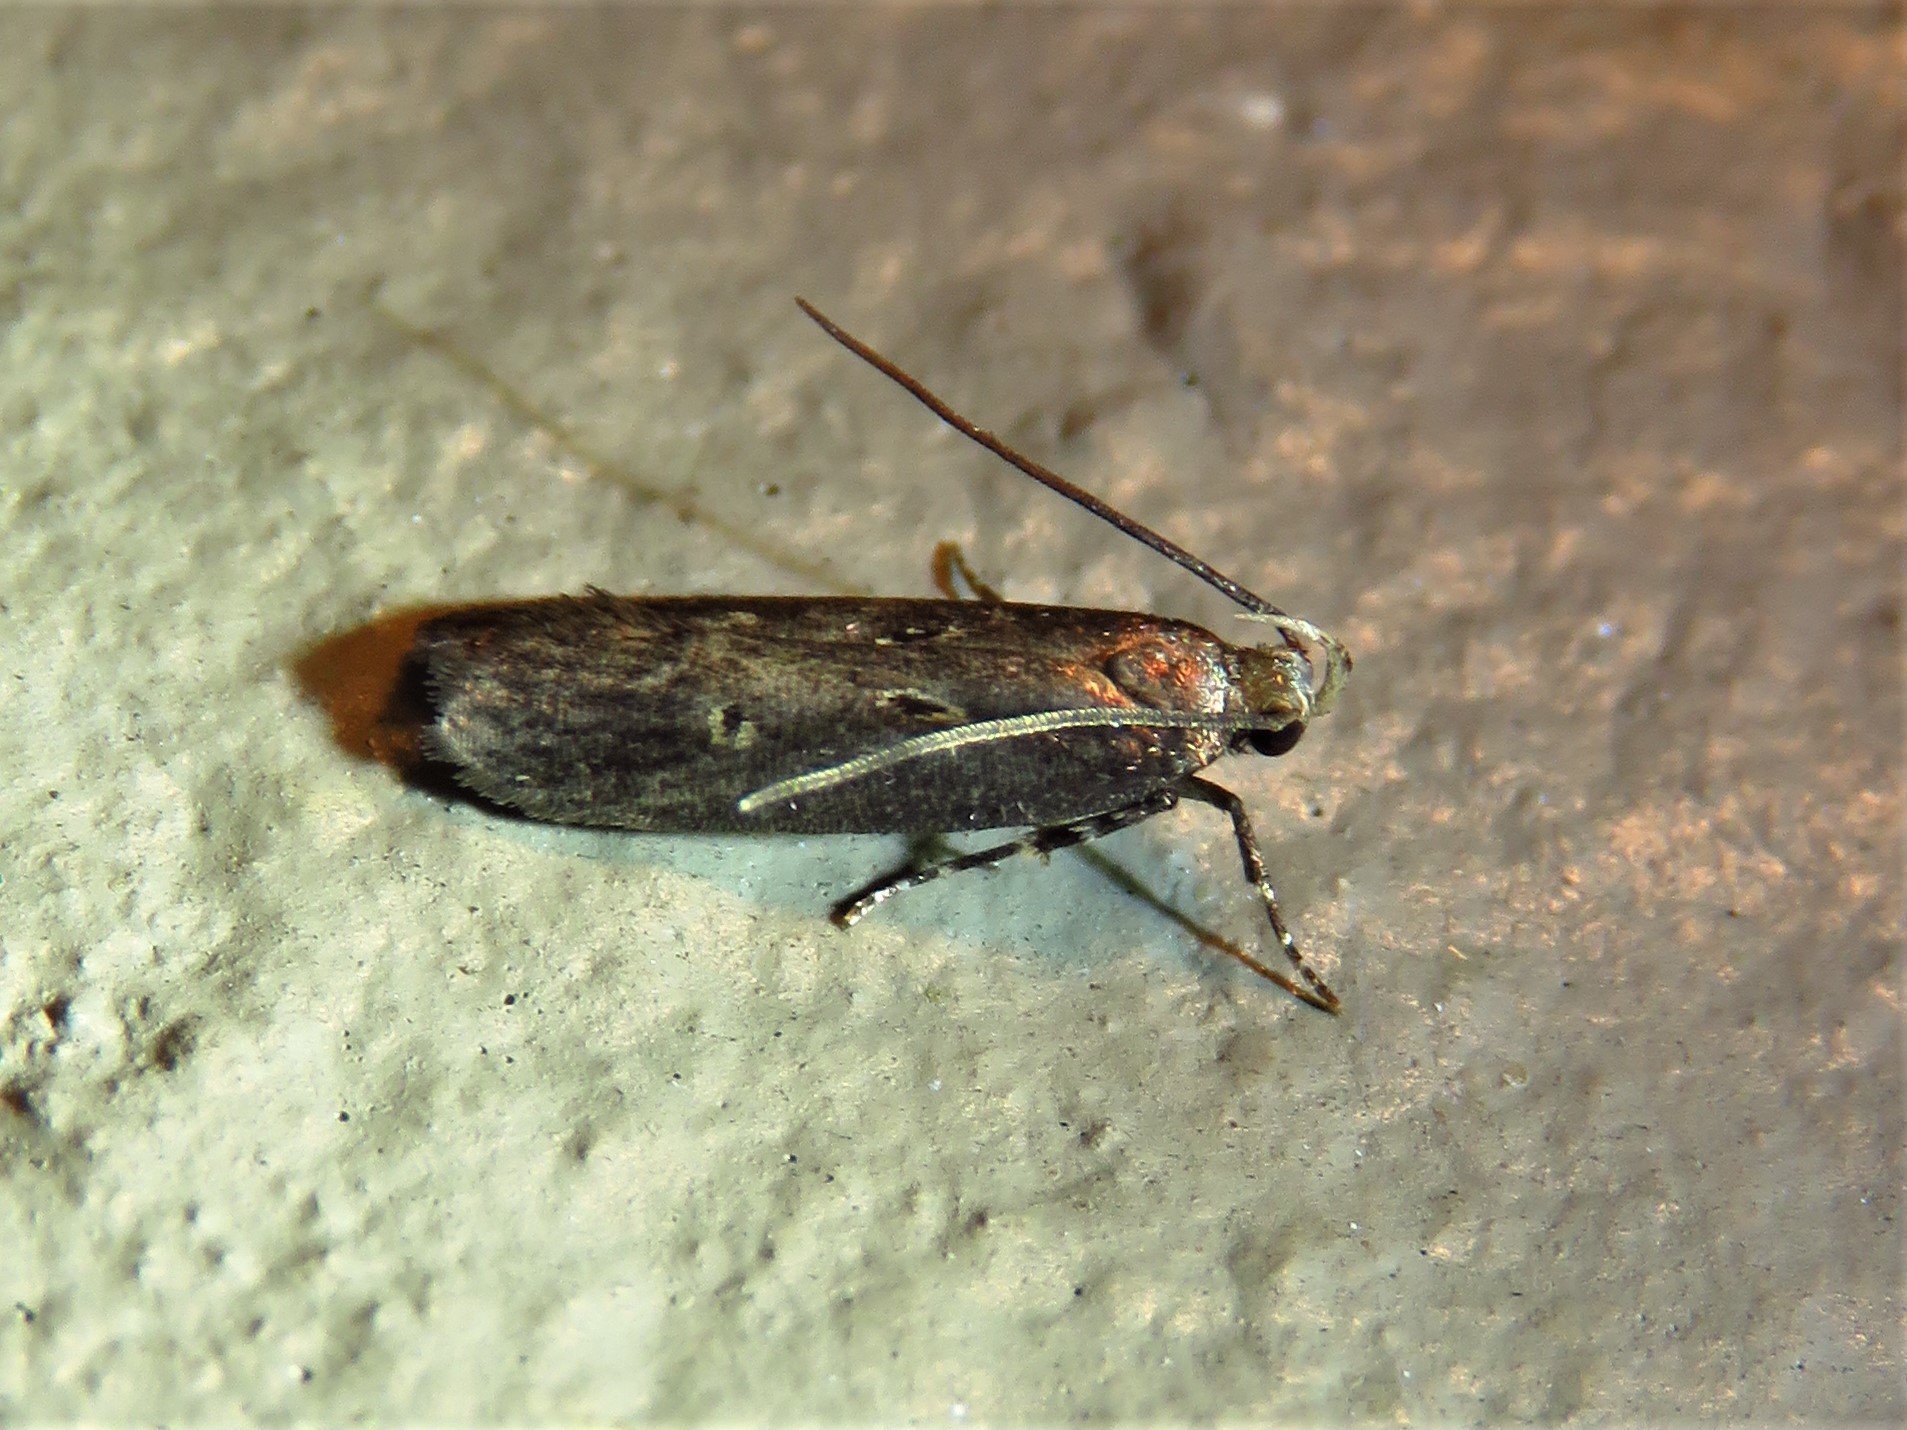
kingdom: Animalia
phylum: Arthropoda
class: Insecta
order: Lepidoptera
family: Gelechiidae
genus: Chionodes
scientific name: Chionodes discoocellella
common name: Eye-ringed chionodes moth
